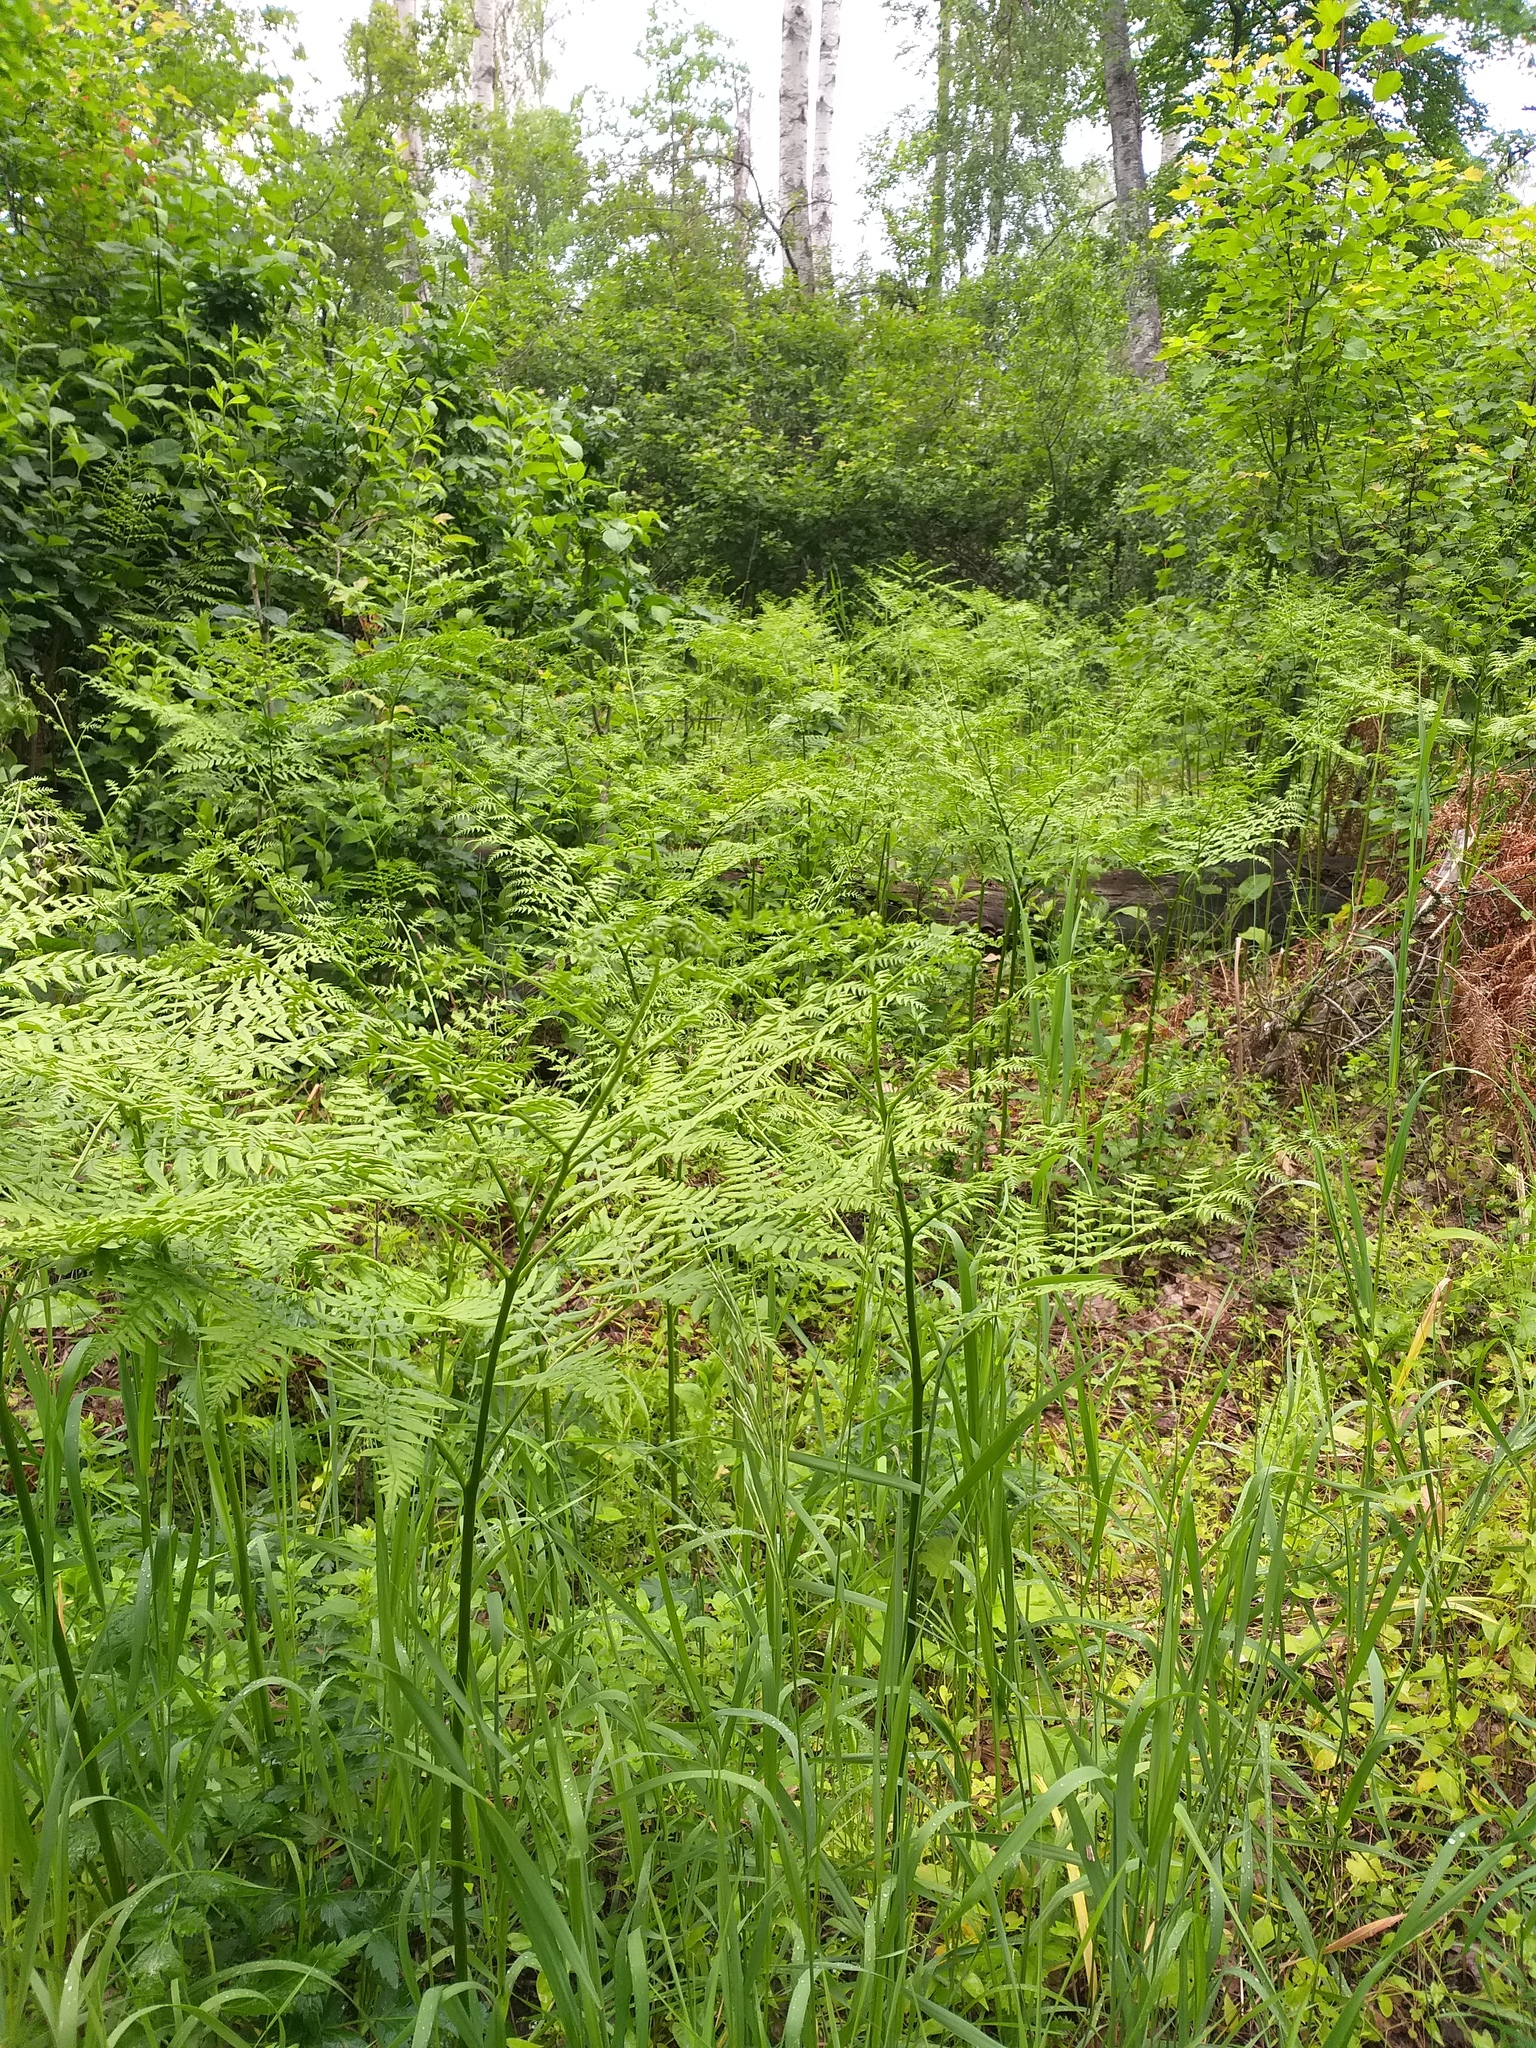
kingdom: Plantae
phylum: Tracheophyta
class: Polypodiopsida
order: Polypodiales
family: Dennstaedtiaceae
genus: Pteridium
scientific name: Pteridium aquilinum
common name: Bracken
